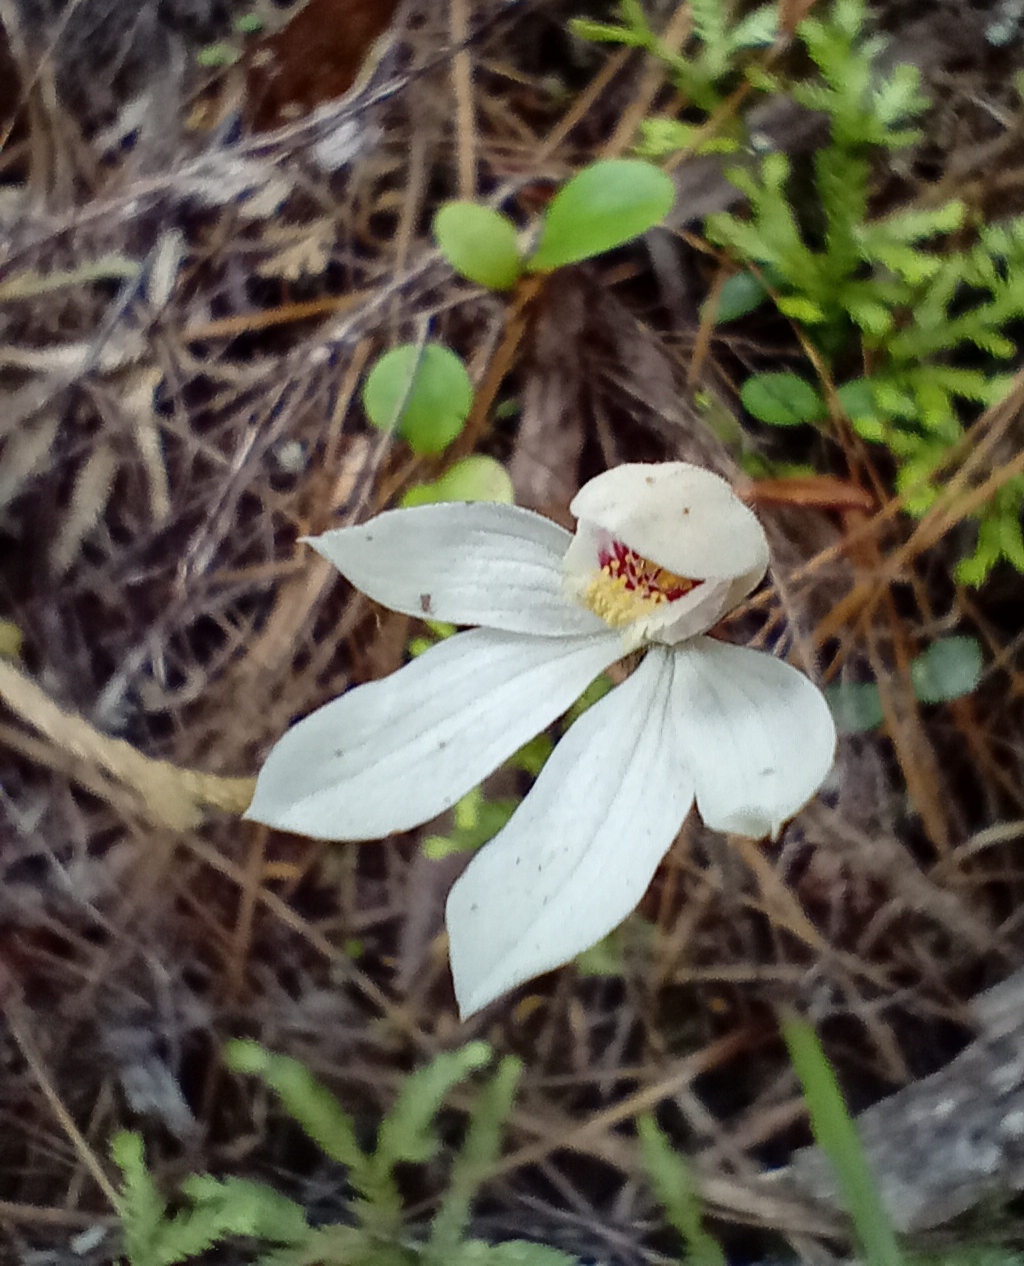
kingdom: Plantae
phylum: Tracheophyta
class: Liliopsida
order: Asparagales
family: Orchidaceae
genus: Caladenia
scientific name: Caladenia lyallii
